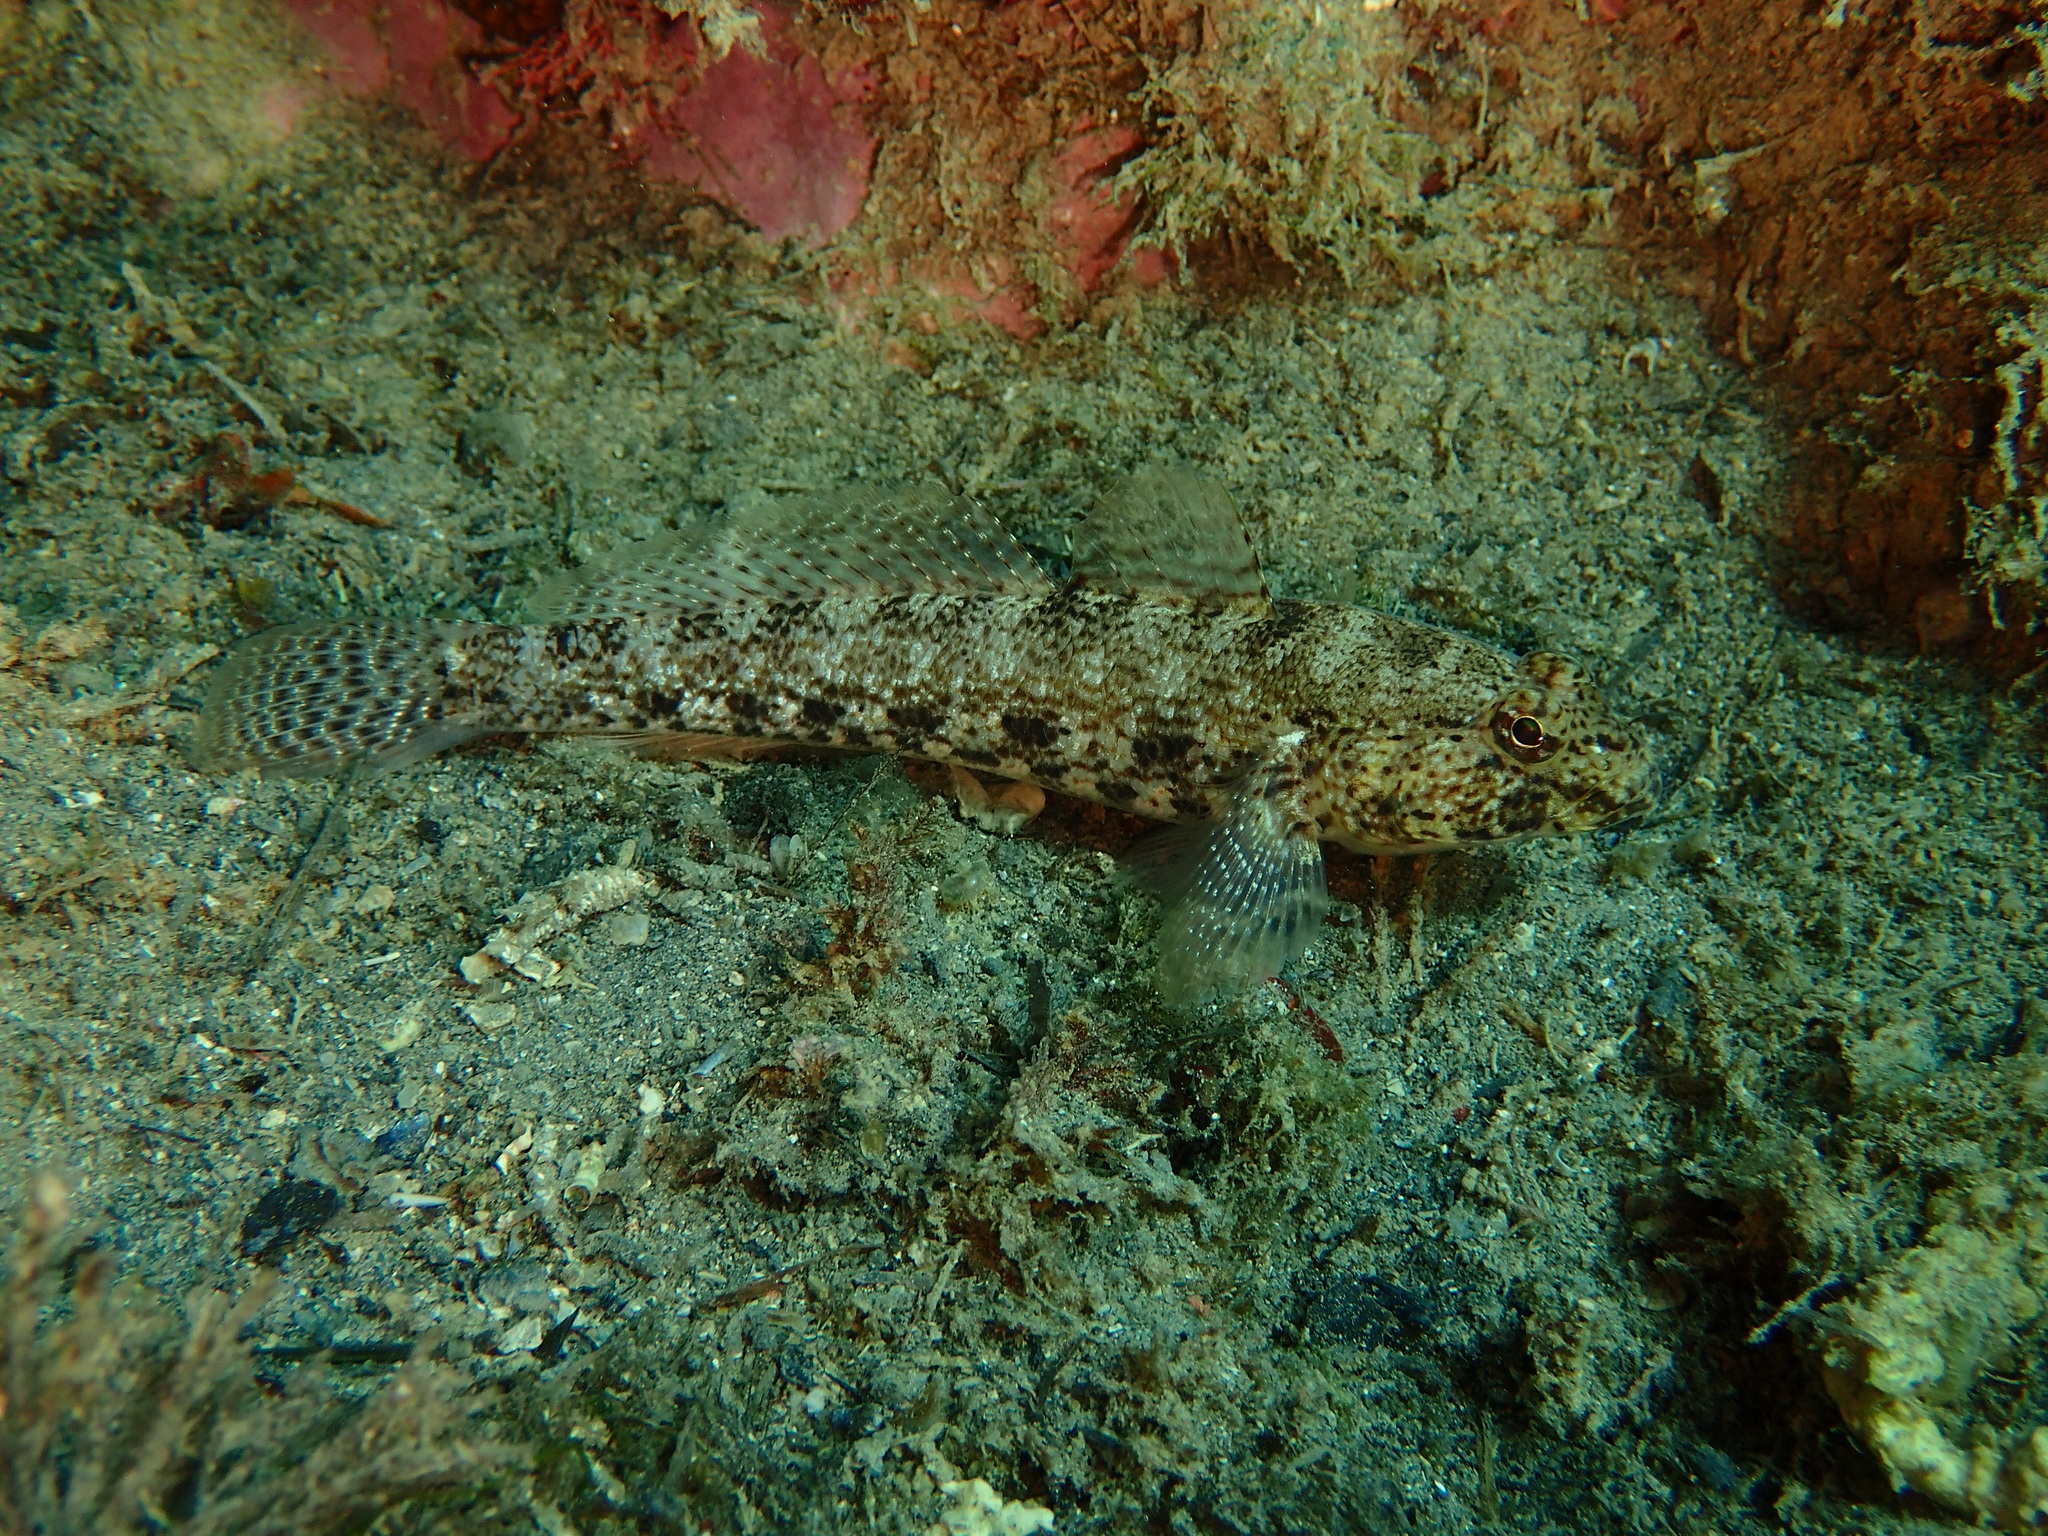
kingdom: Animalia
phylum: Chordata
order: Perciformes
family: Gobiidae
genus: Gobius
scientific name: Gobius incognitus
